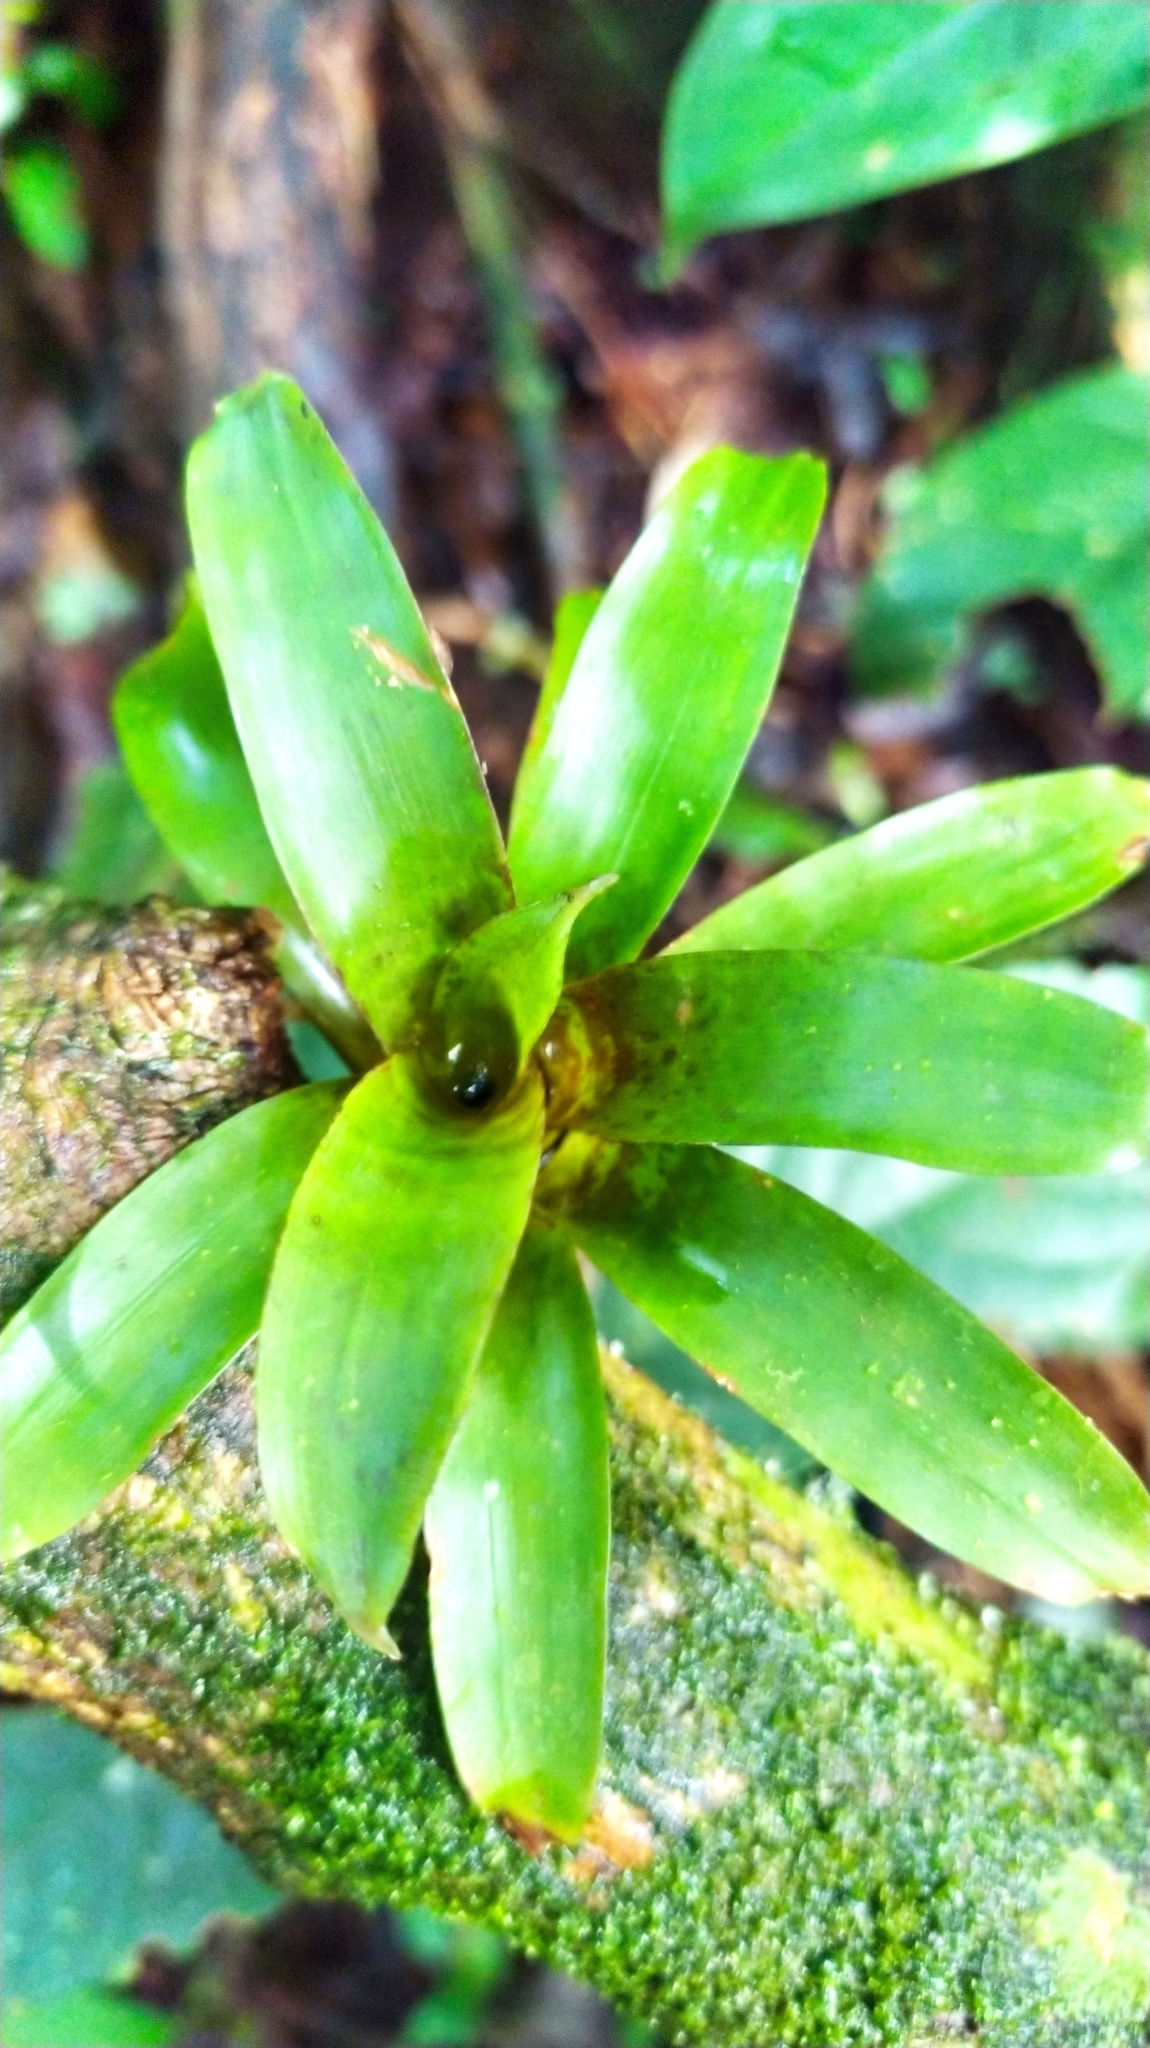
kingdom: Plantae
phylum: Tracheophyta
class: Liliopsida
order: Poales
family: Bromeliaceae
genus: Lutheria
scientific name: Lutheria splendens
